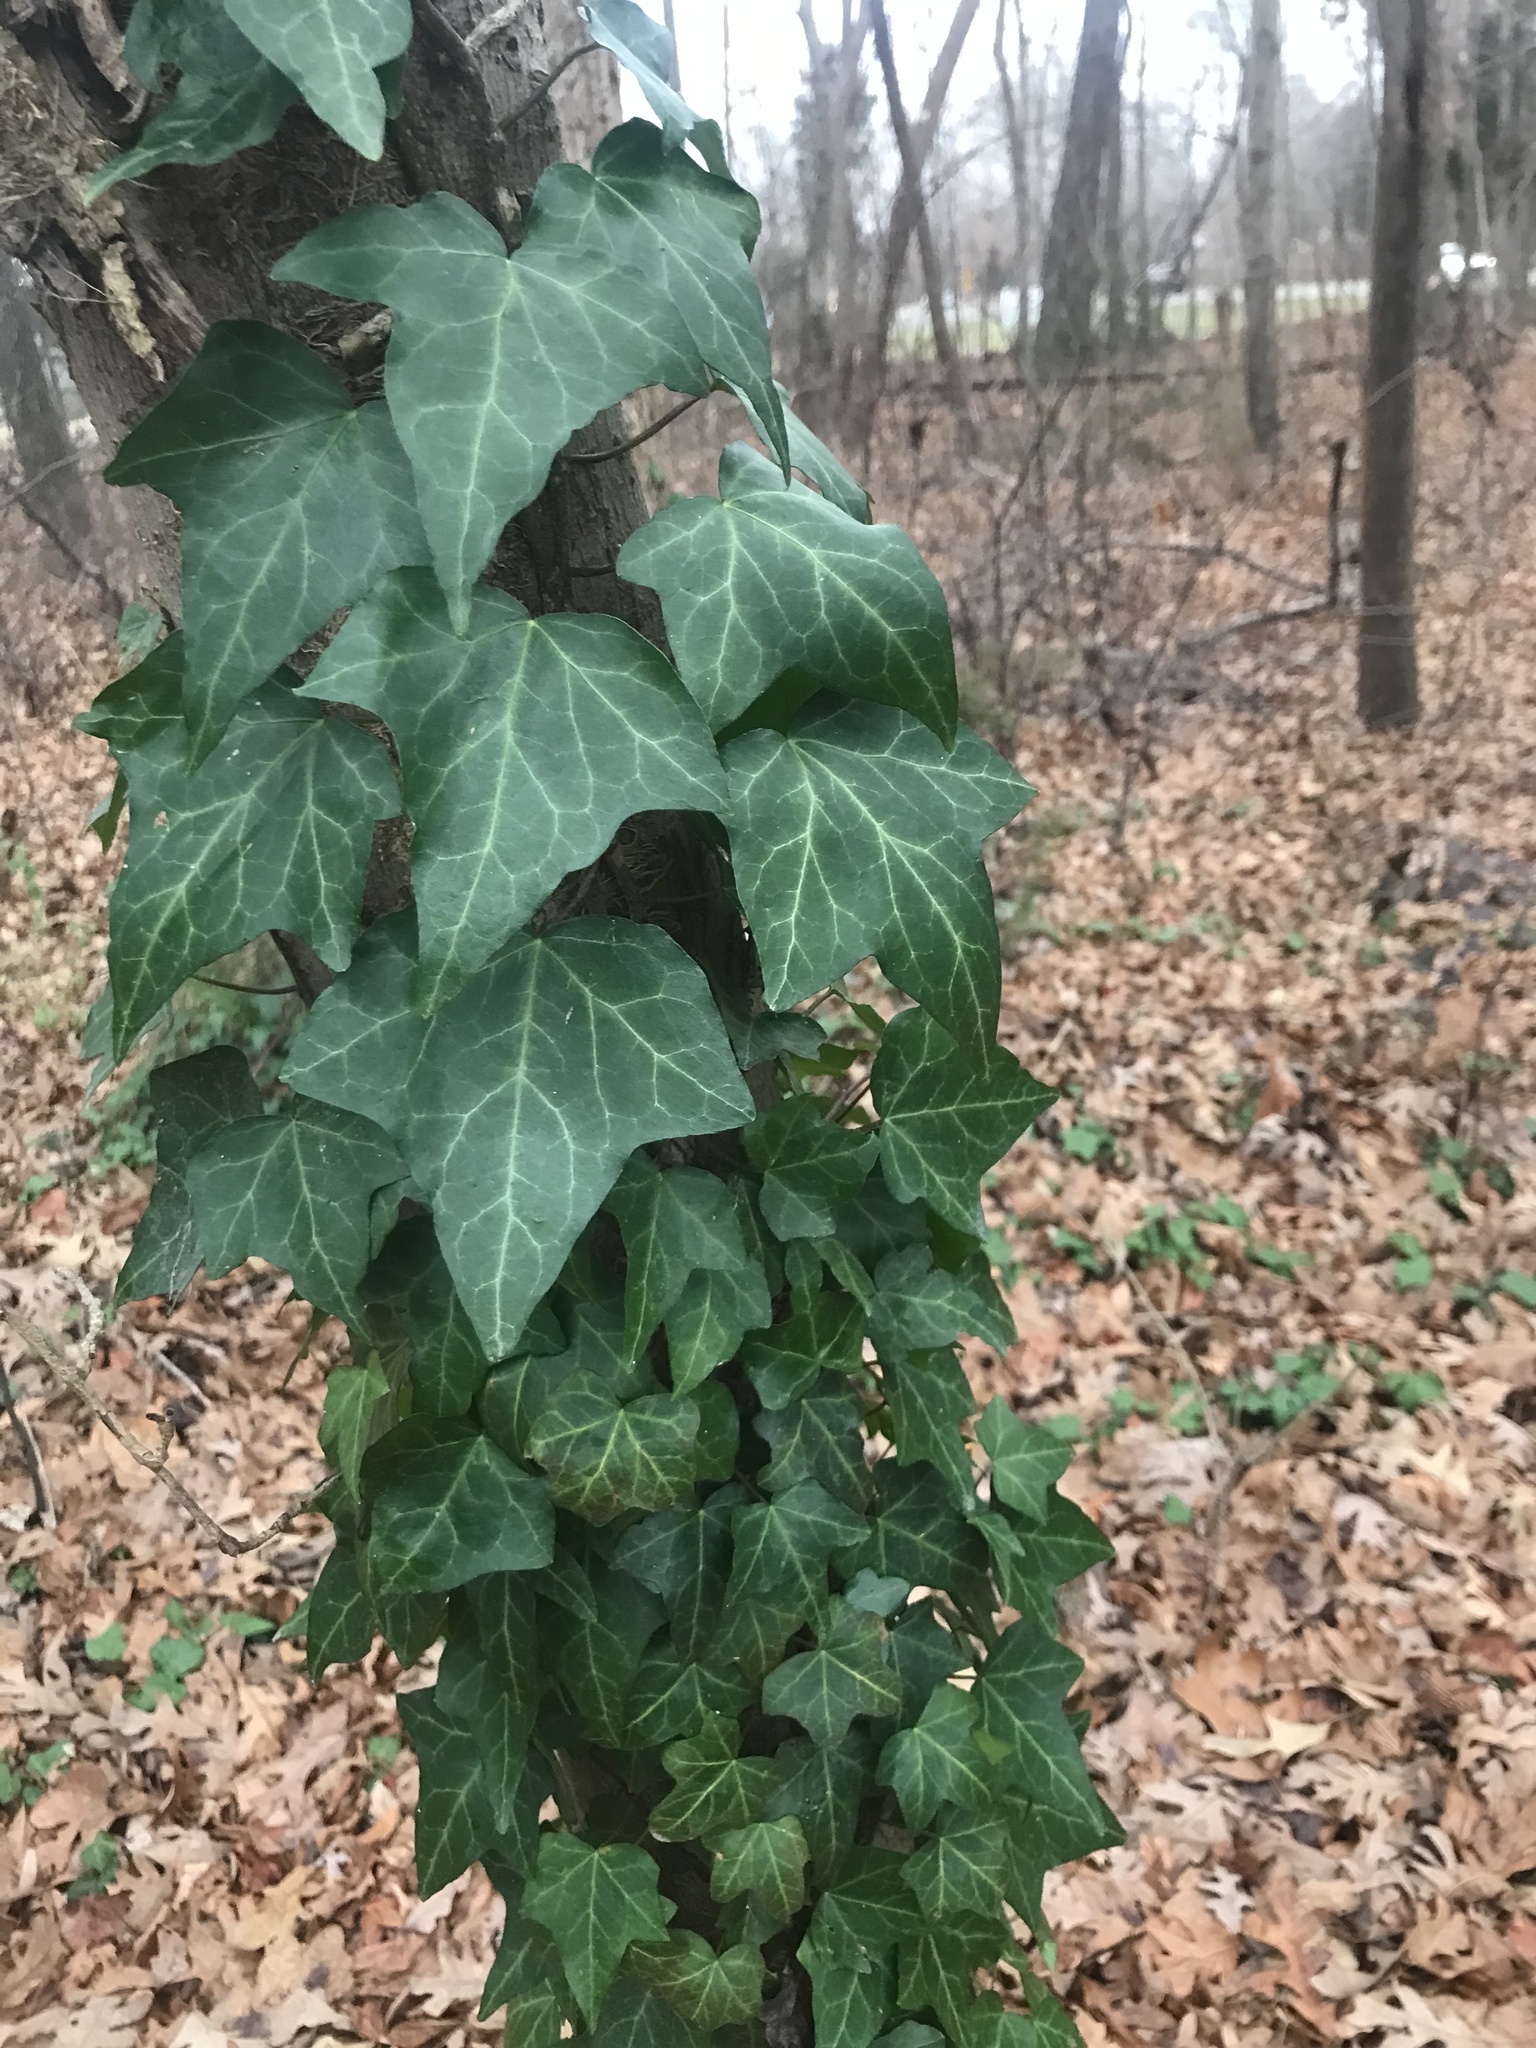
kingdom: Plantae
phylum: Tracheophyta
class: Magnoliopsida
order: Apiales
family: Araliaceae
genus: Hedera
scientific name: Hedera helix
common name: Ivy
